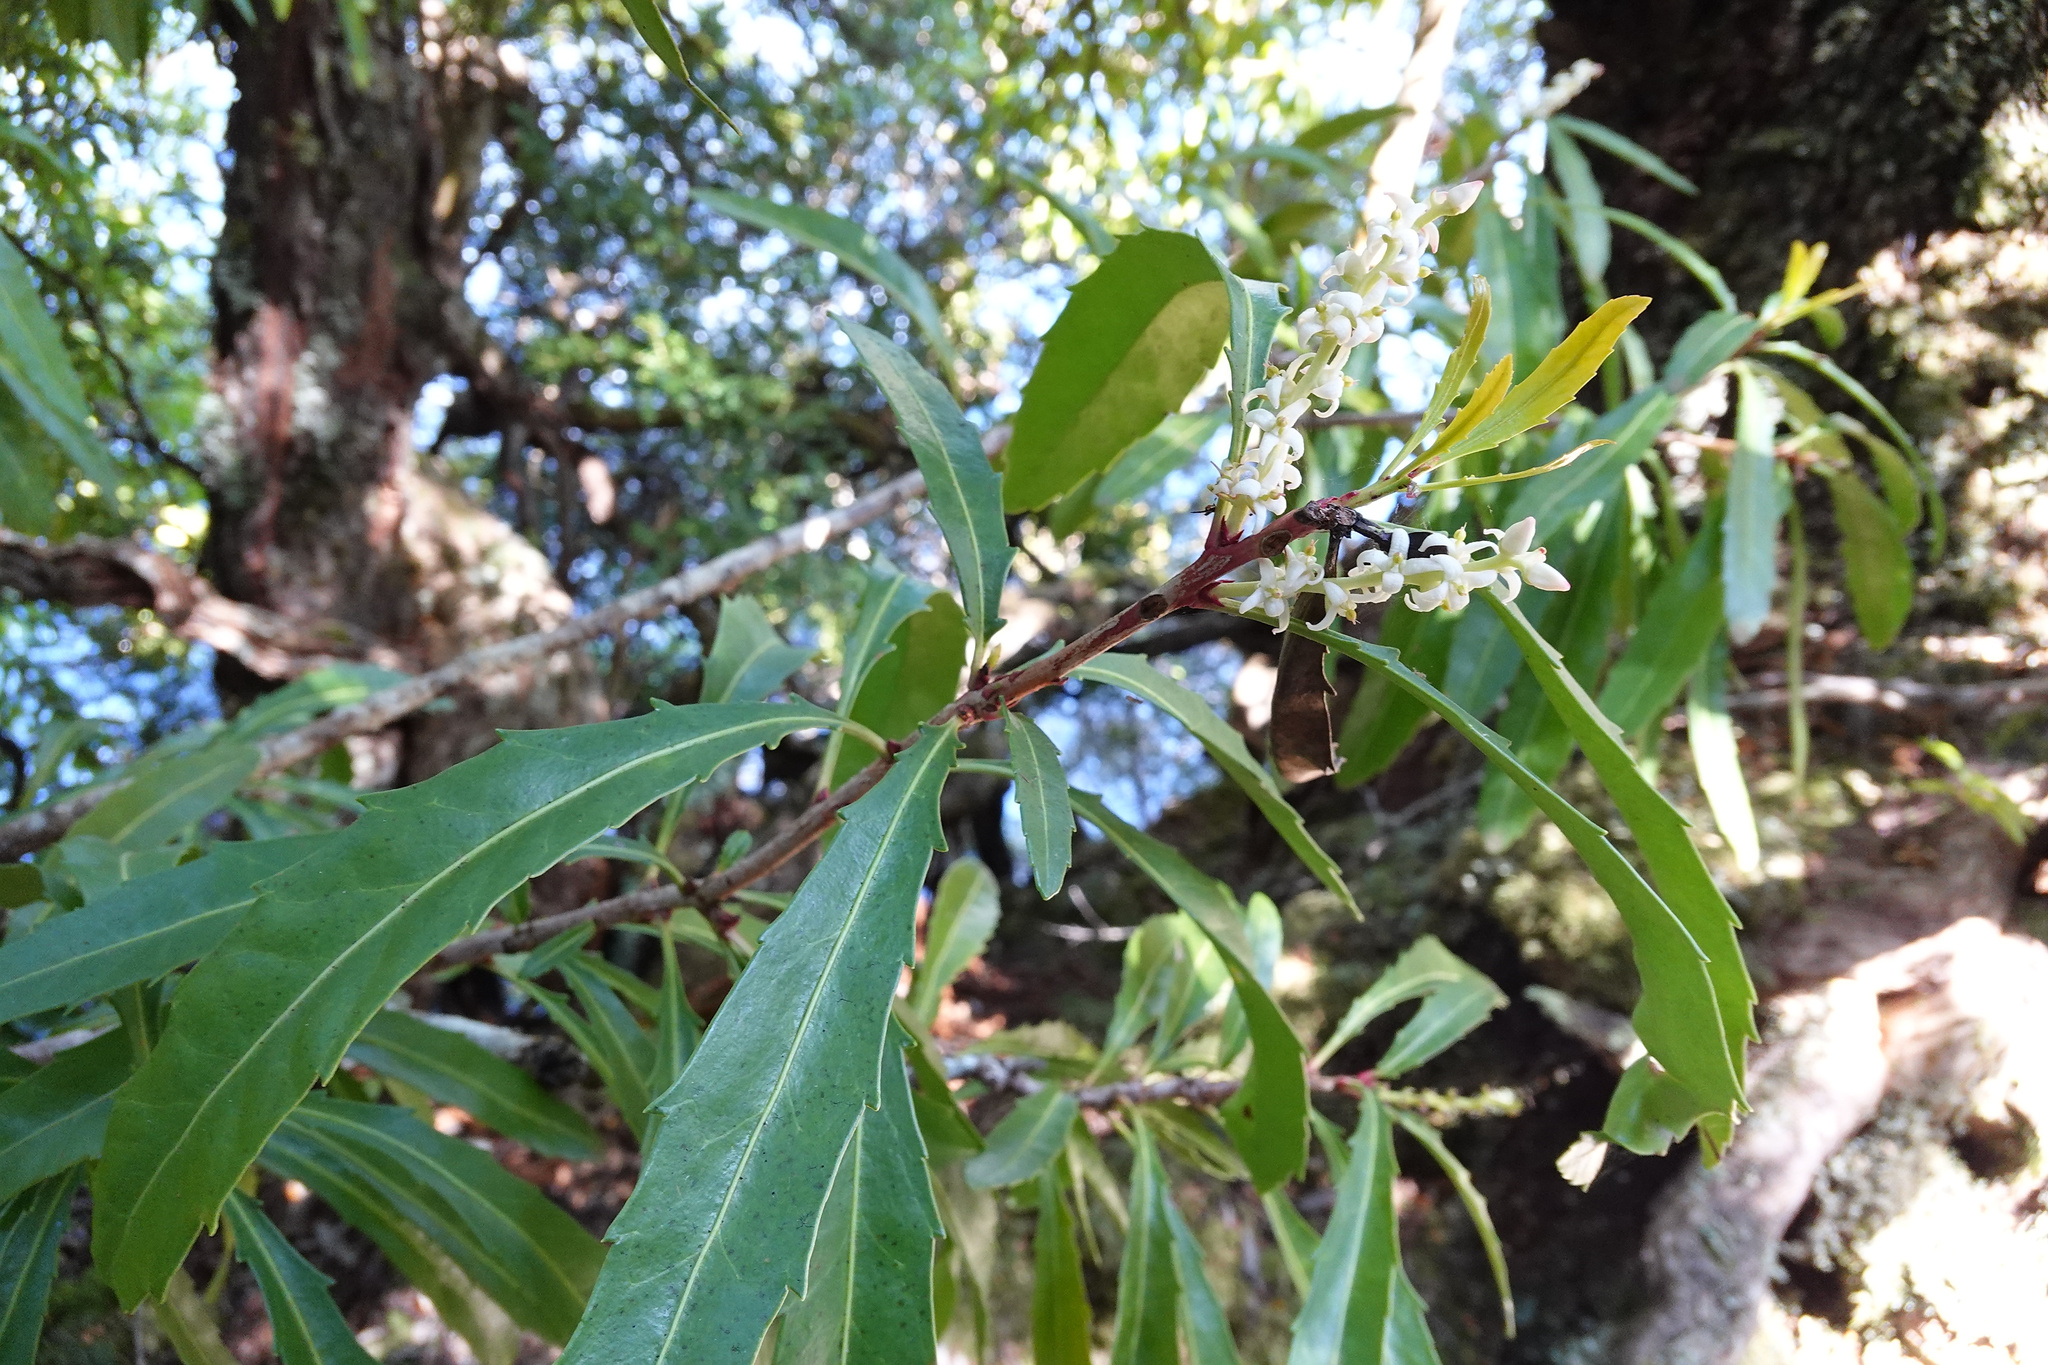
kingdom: Plantae
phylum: Tracheophyta
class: Magnoliopsida
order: Proteales
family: Proteaceae
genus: Cenarrhenes
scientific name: Cenarrhenes nitida
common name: Native plum
